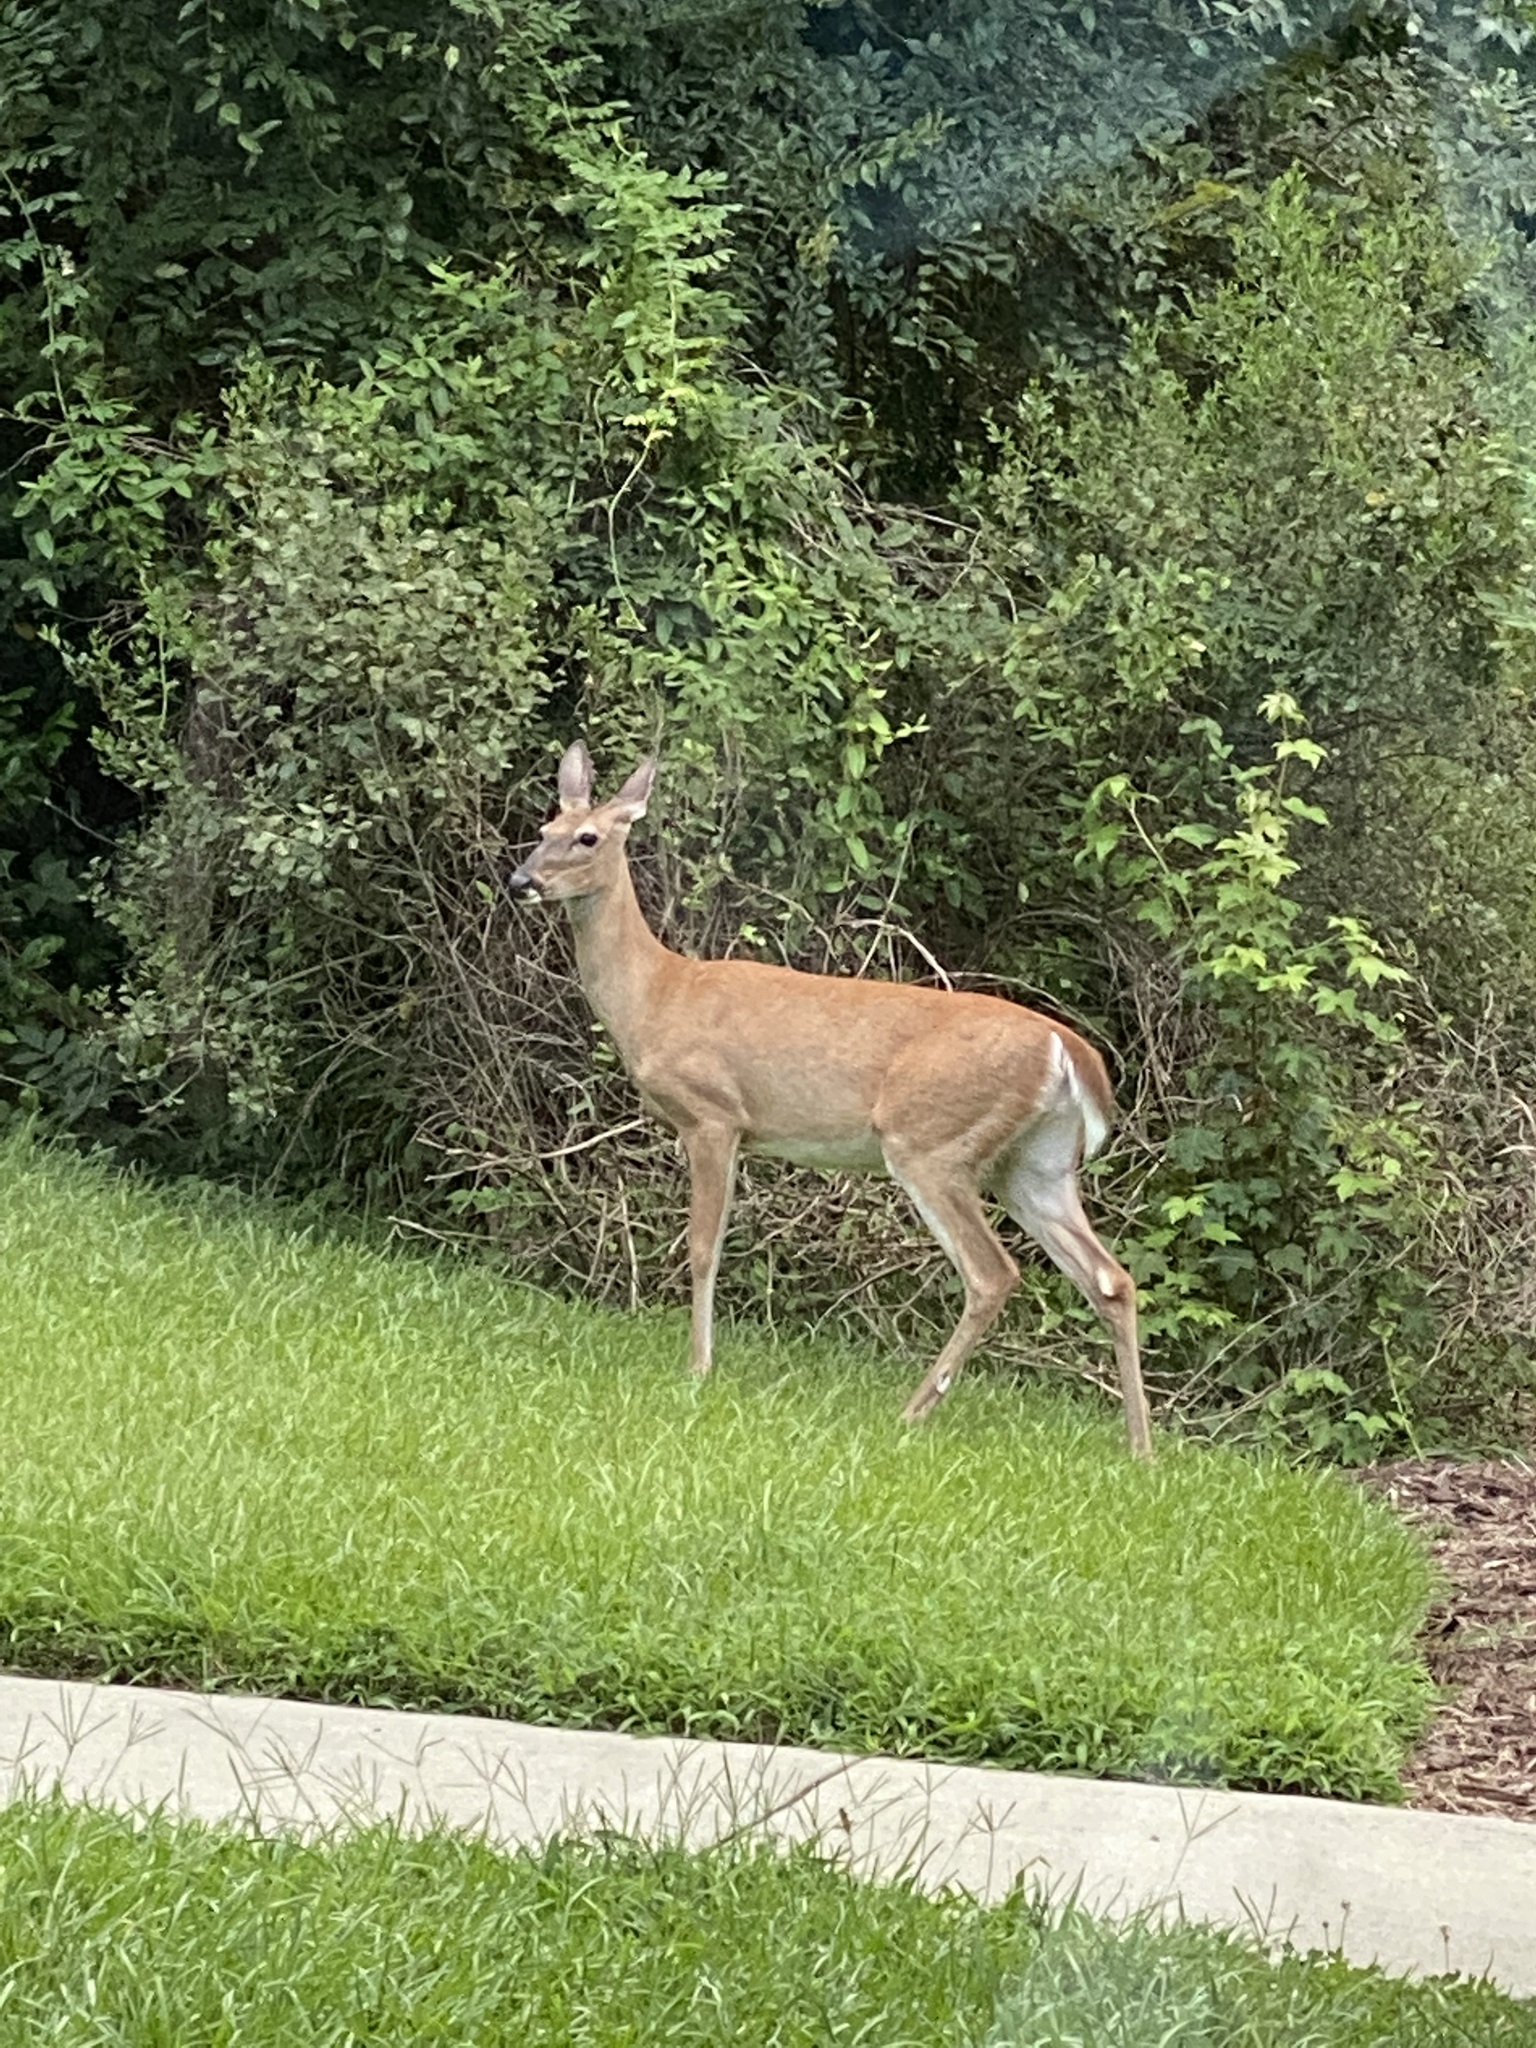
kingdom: Animalia
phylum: Chordata
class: Mammalia
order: Artiodactyla
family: Cervidae
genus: Odocoileus
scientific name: Odocoileus virginianus
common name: White-tailed deer
